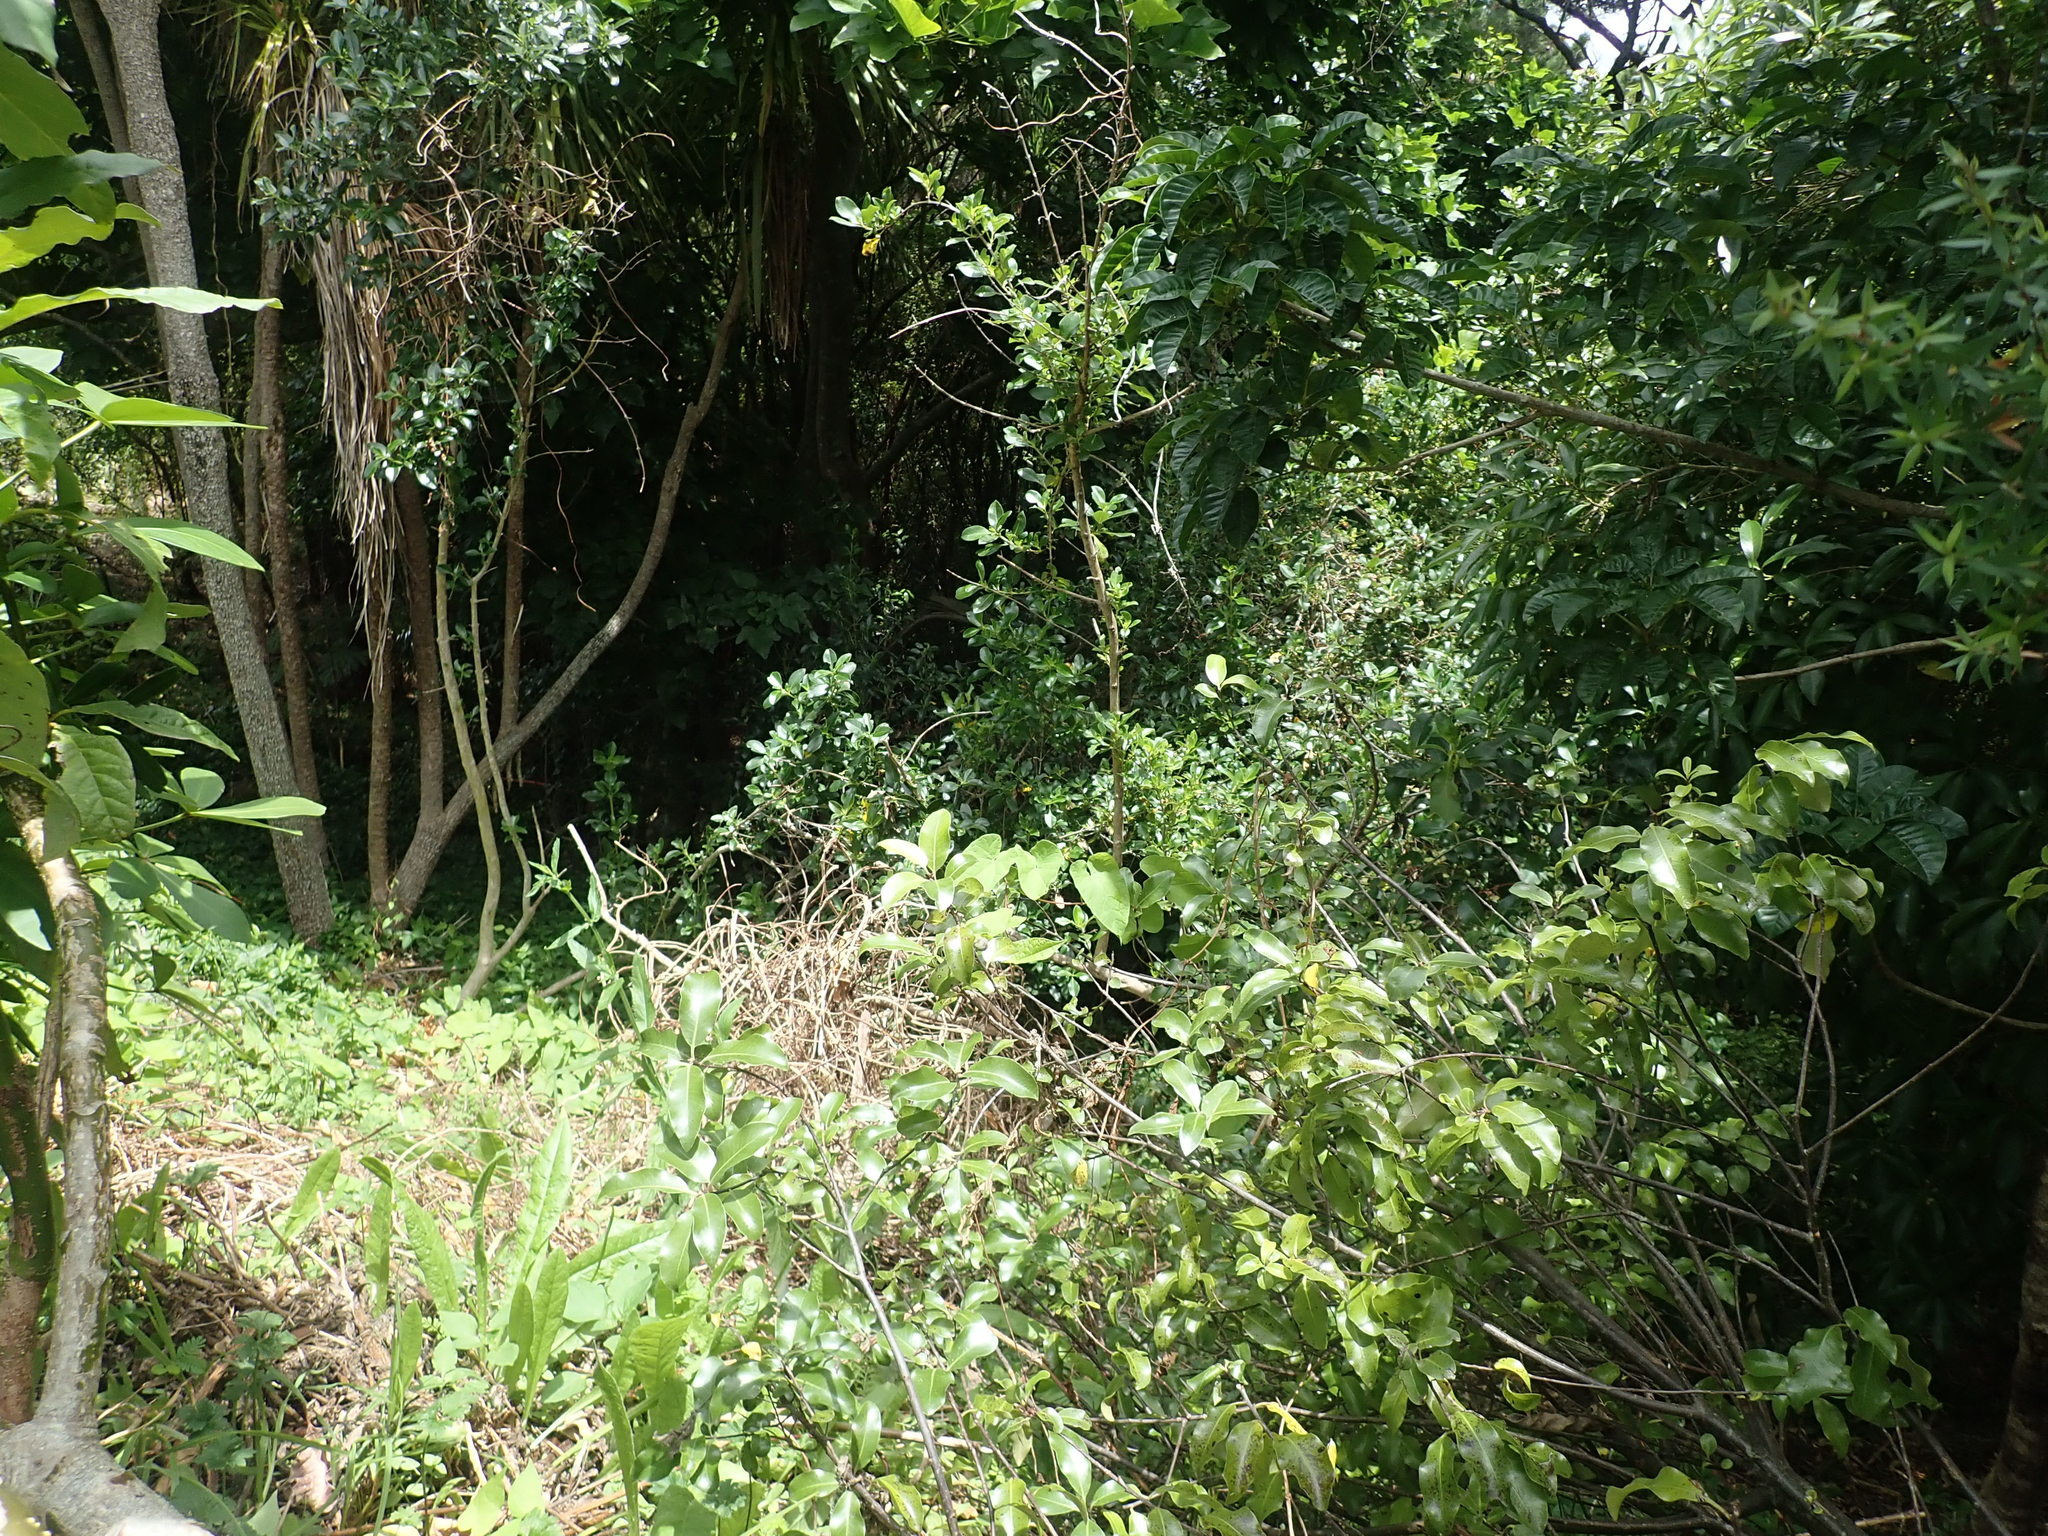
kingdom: Plantae
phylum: Tracheophyta
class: Magnoliopsida
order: Laurales
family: Lauraceae
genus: Persea
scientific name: Persea americana
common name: Avocado
